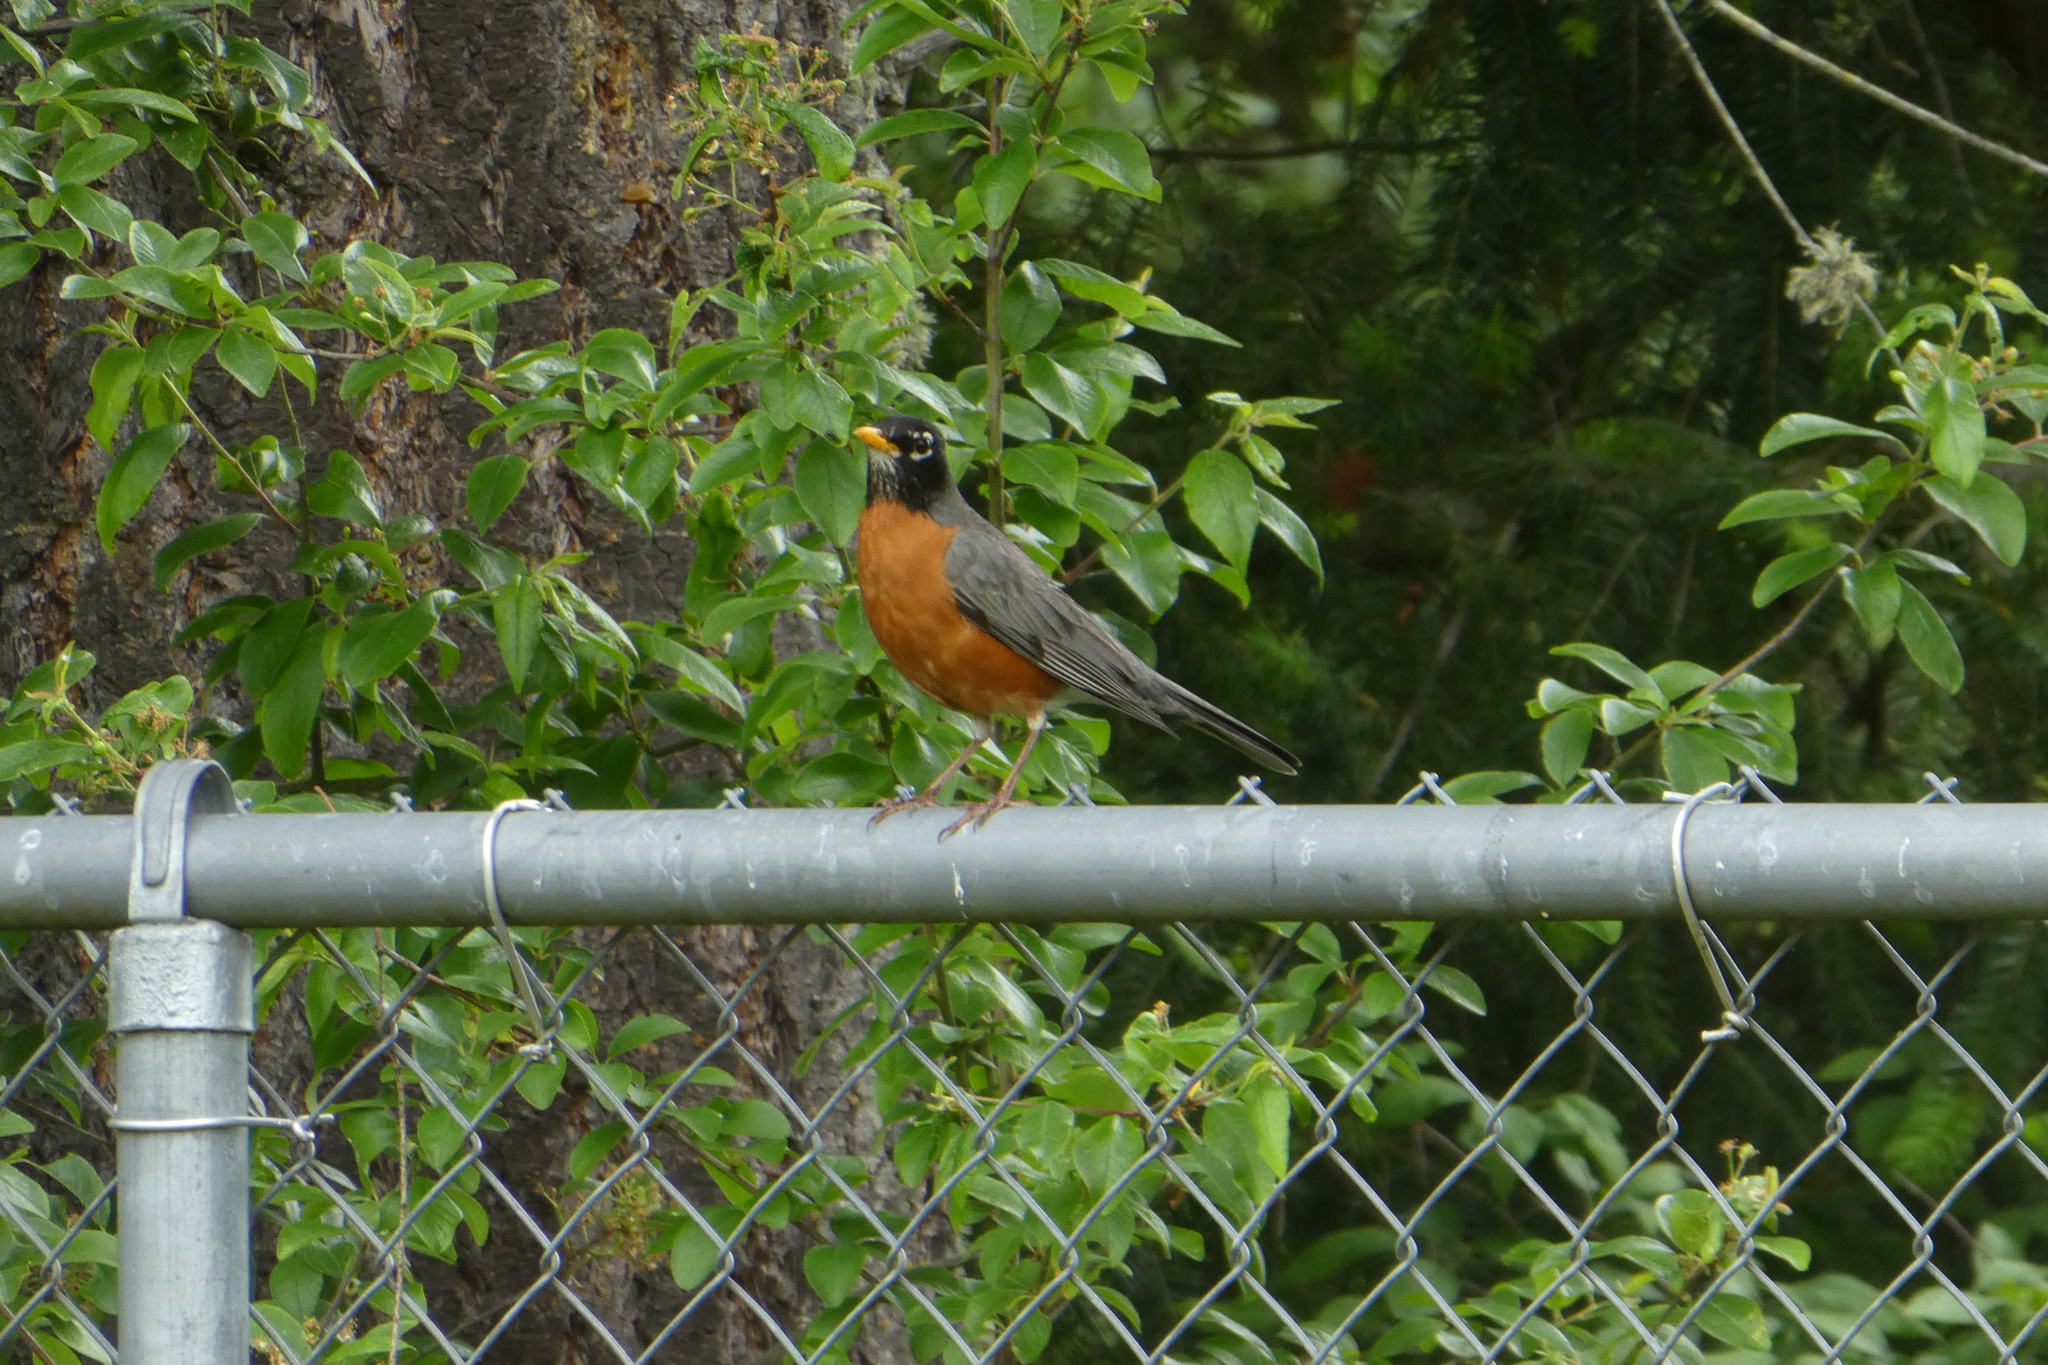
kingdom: Animalia
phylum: Chordata
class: Aves
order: Passeriformes
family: Turdidae
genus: Turdus
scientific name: Turdus migratorius
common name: American robin
